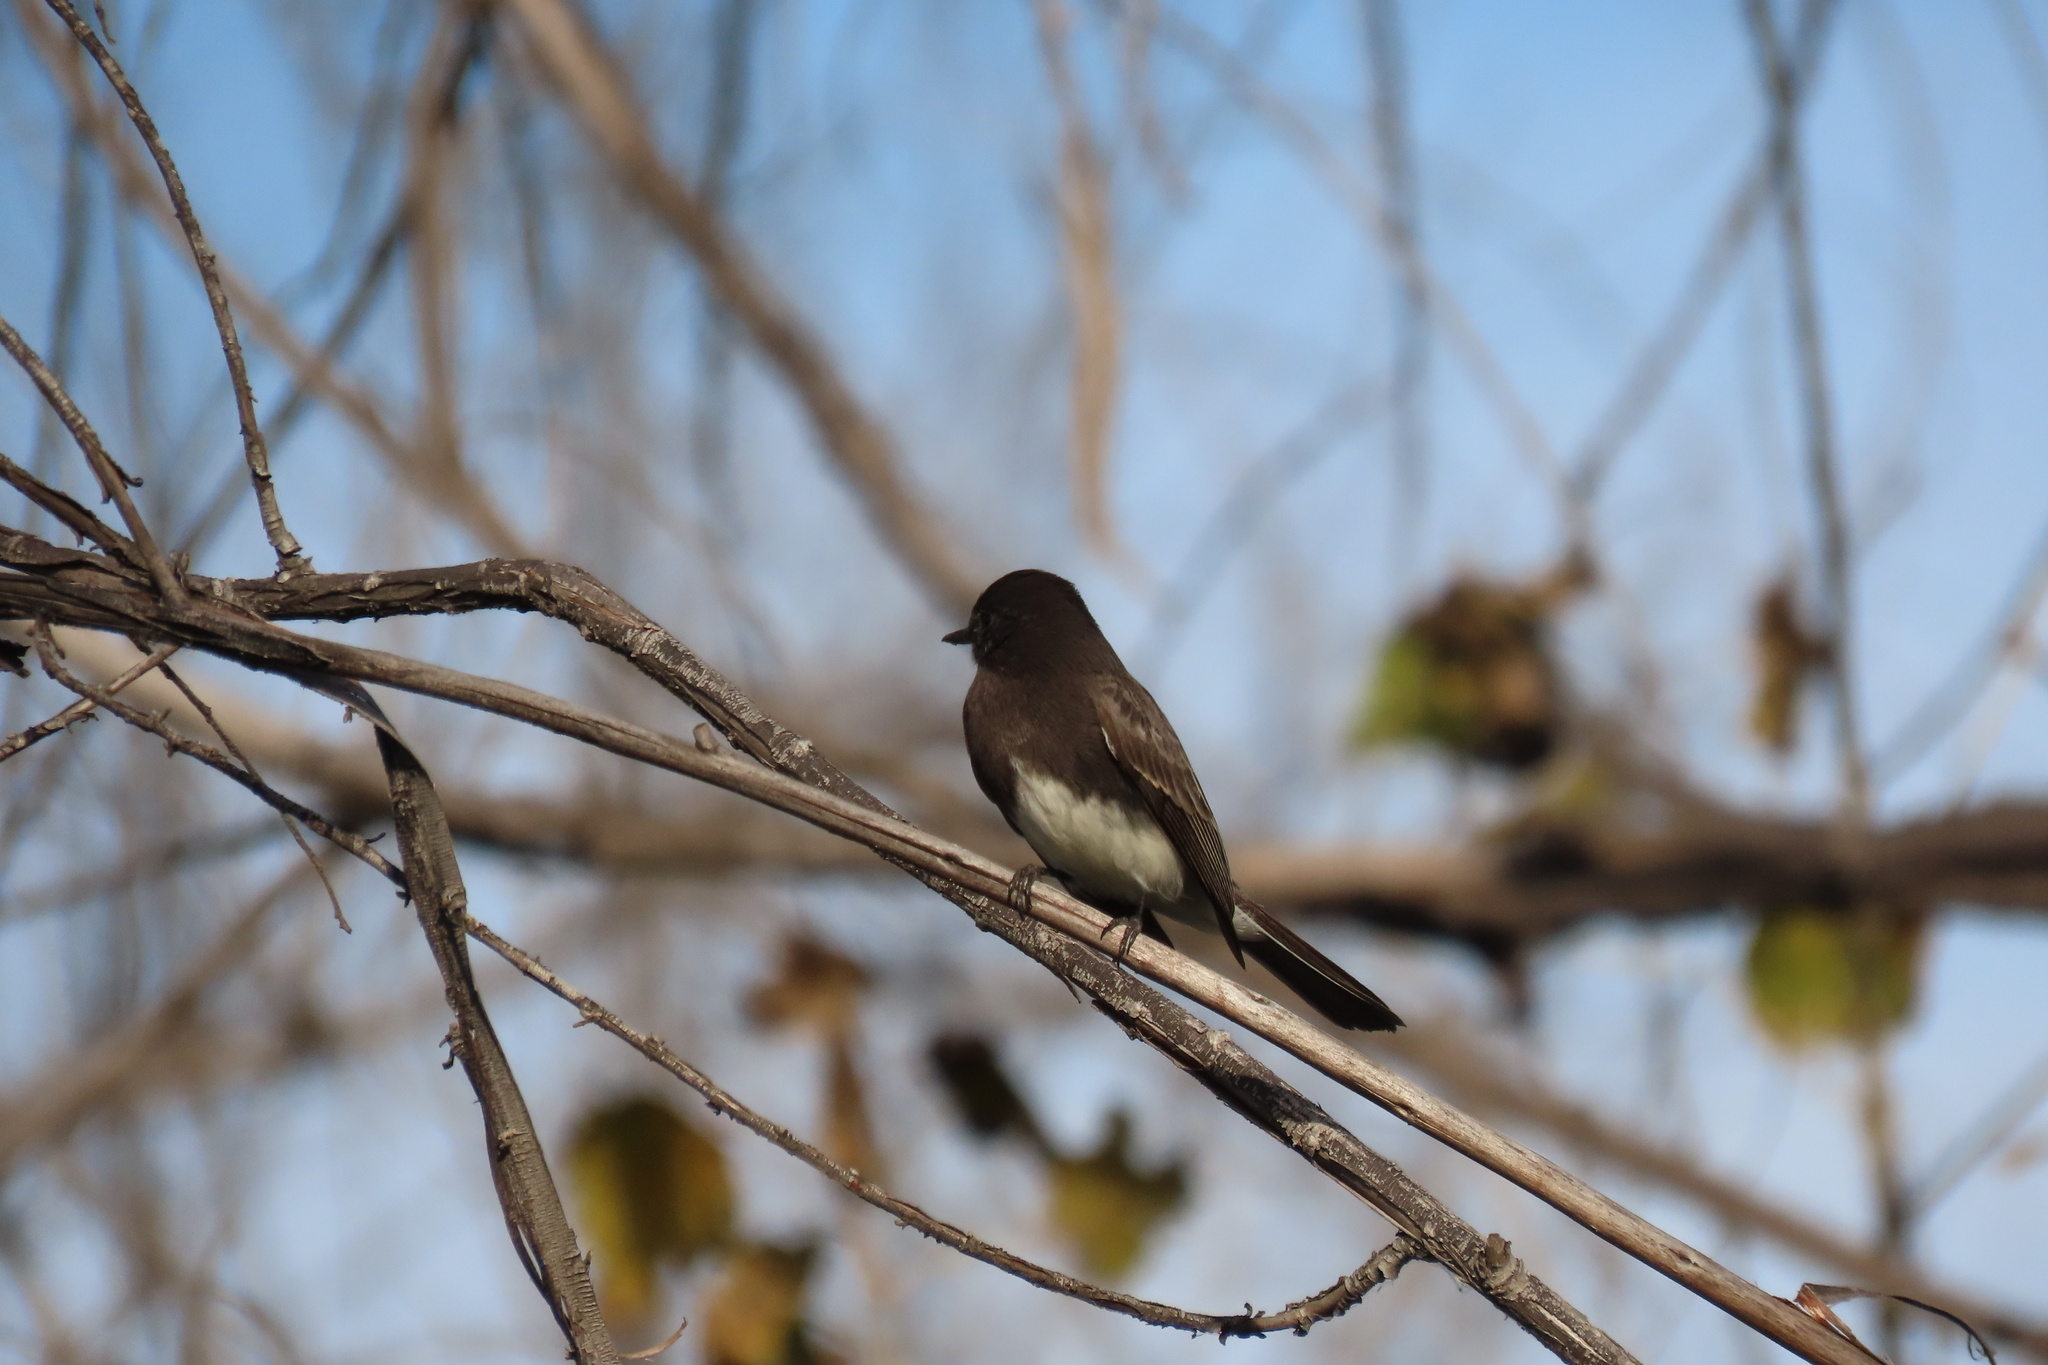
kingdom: Animalia
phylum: Chordata
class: Aves
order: Passeriformes
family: Tyrannidae
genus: Sayornis
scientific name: Sayornis nigricans
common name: Black phoebe
